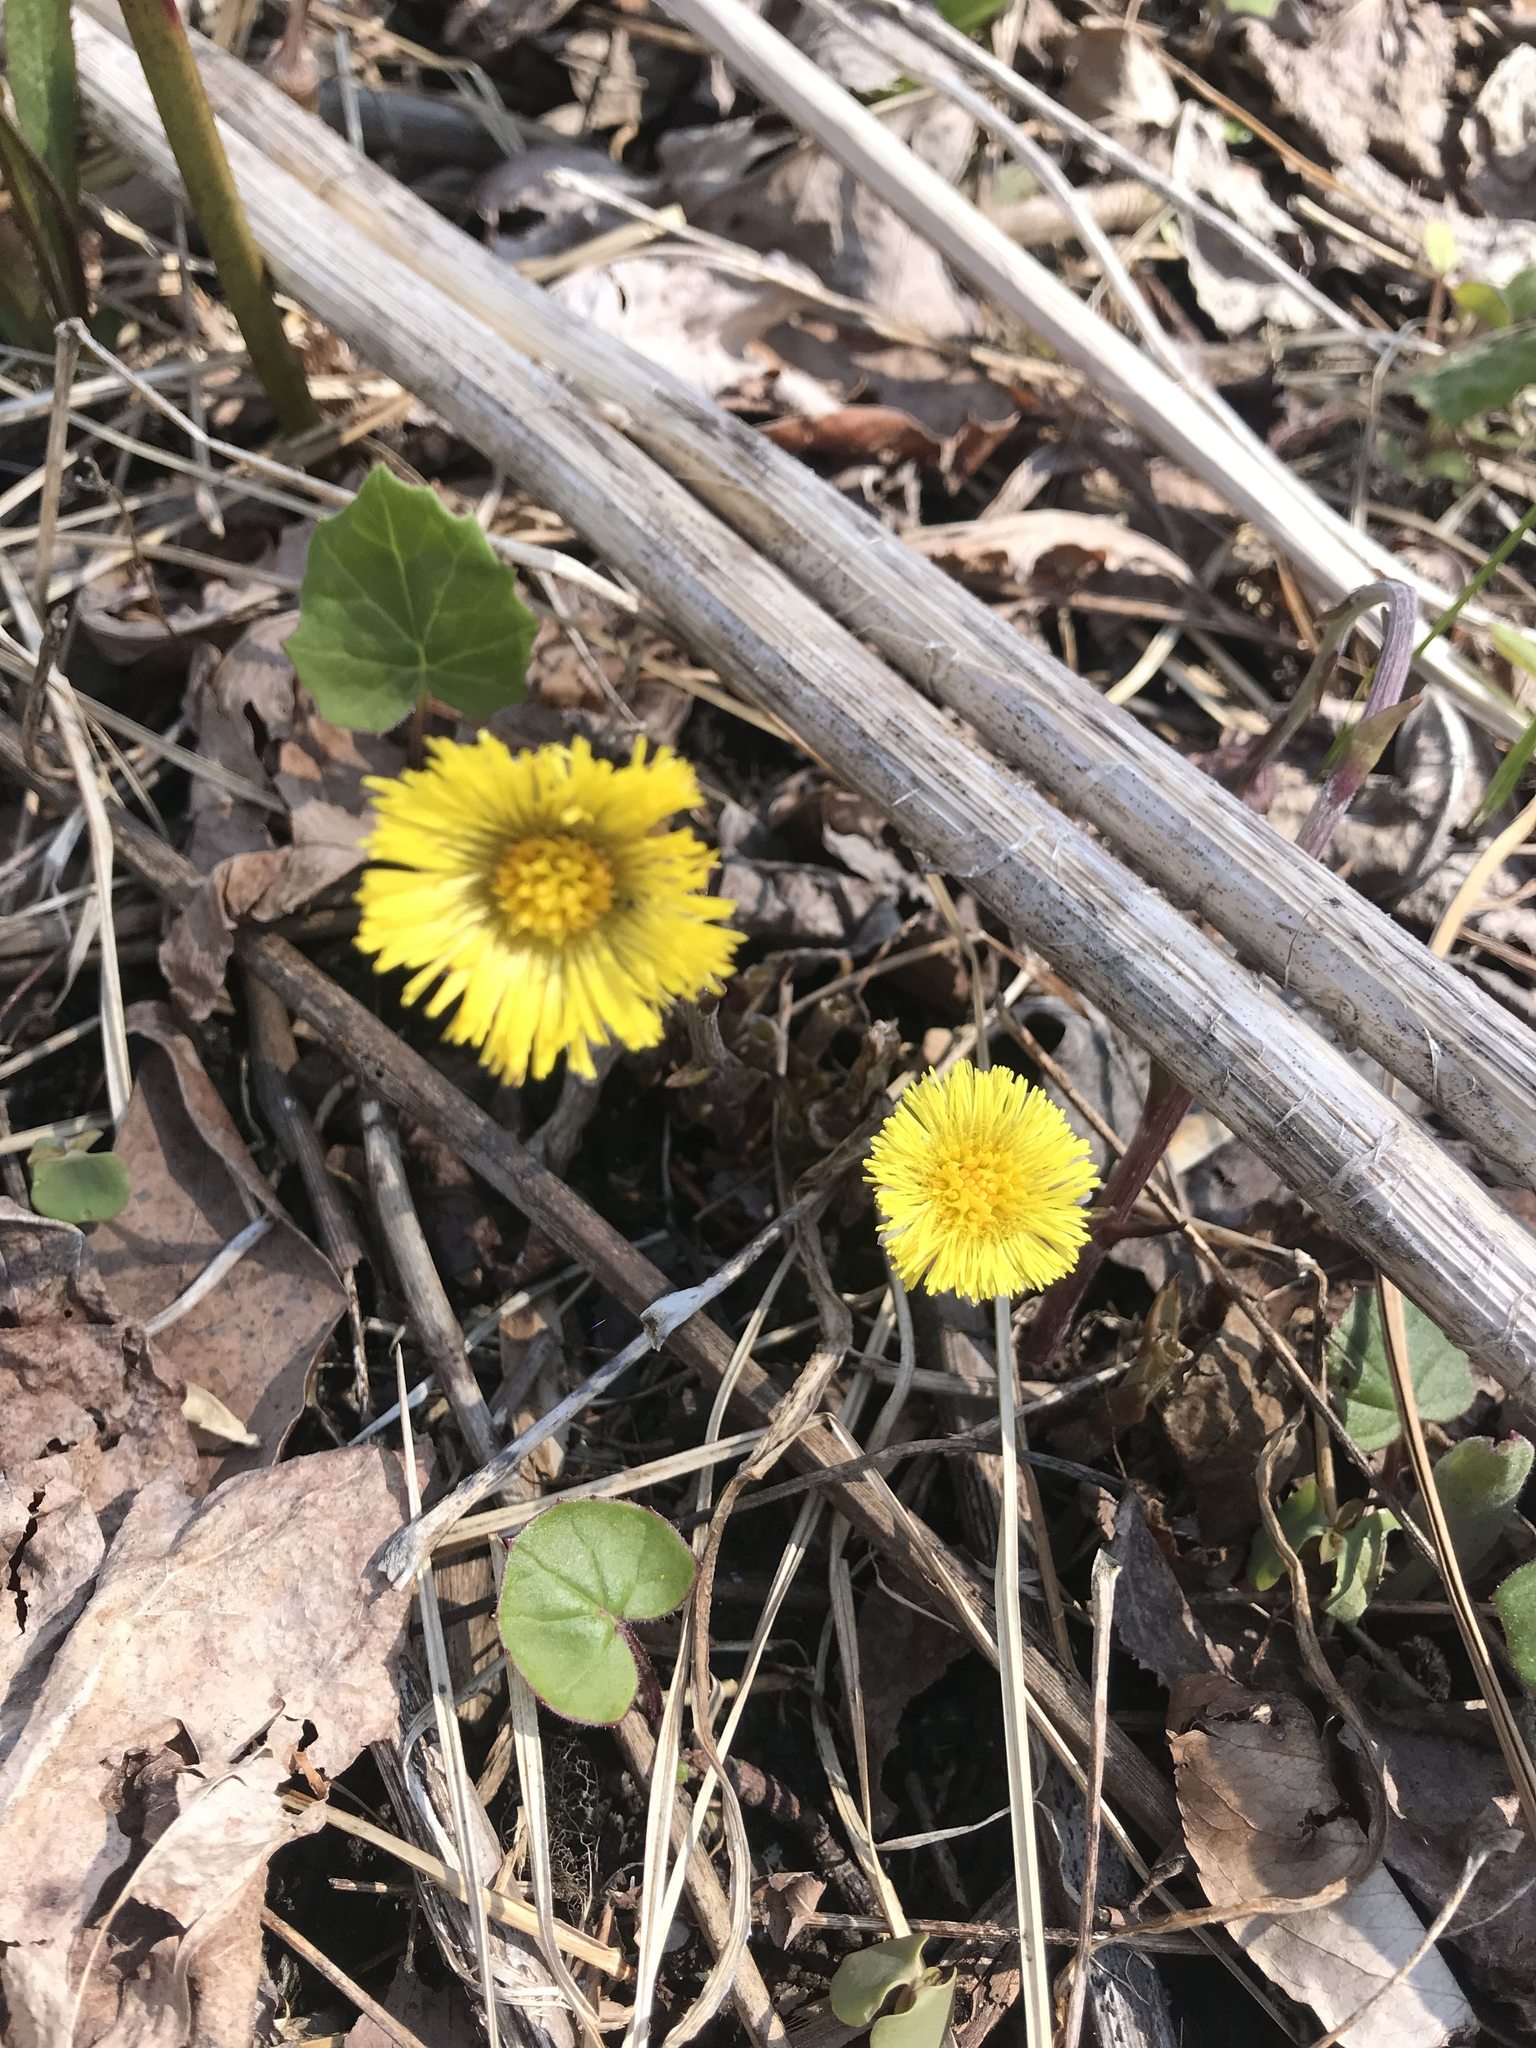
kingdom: Plantae
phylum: Tracheophyta
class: Magnoliopsida
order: Asterales
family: Asteraceae
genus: Tussilago
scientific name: Tussilago farfara
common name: Coltsfoot
